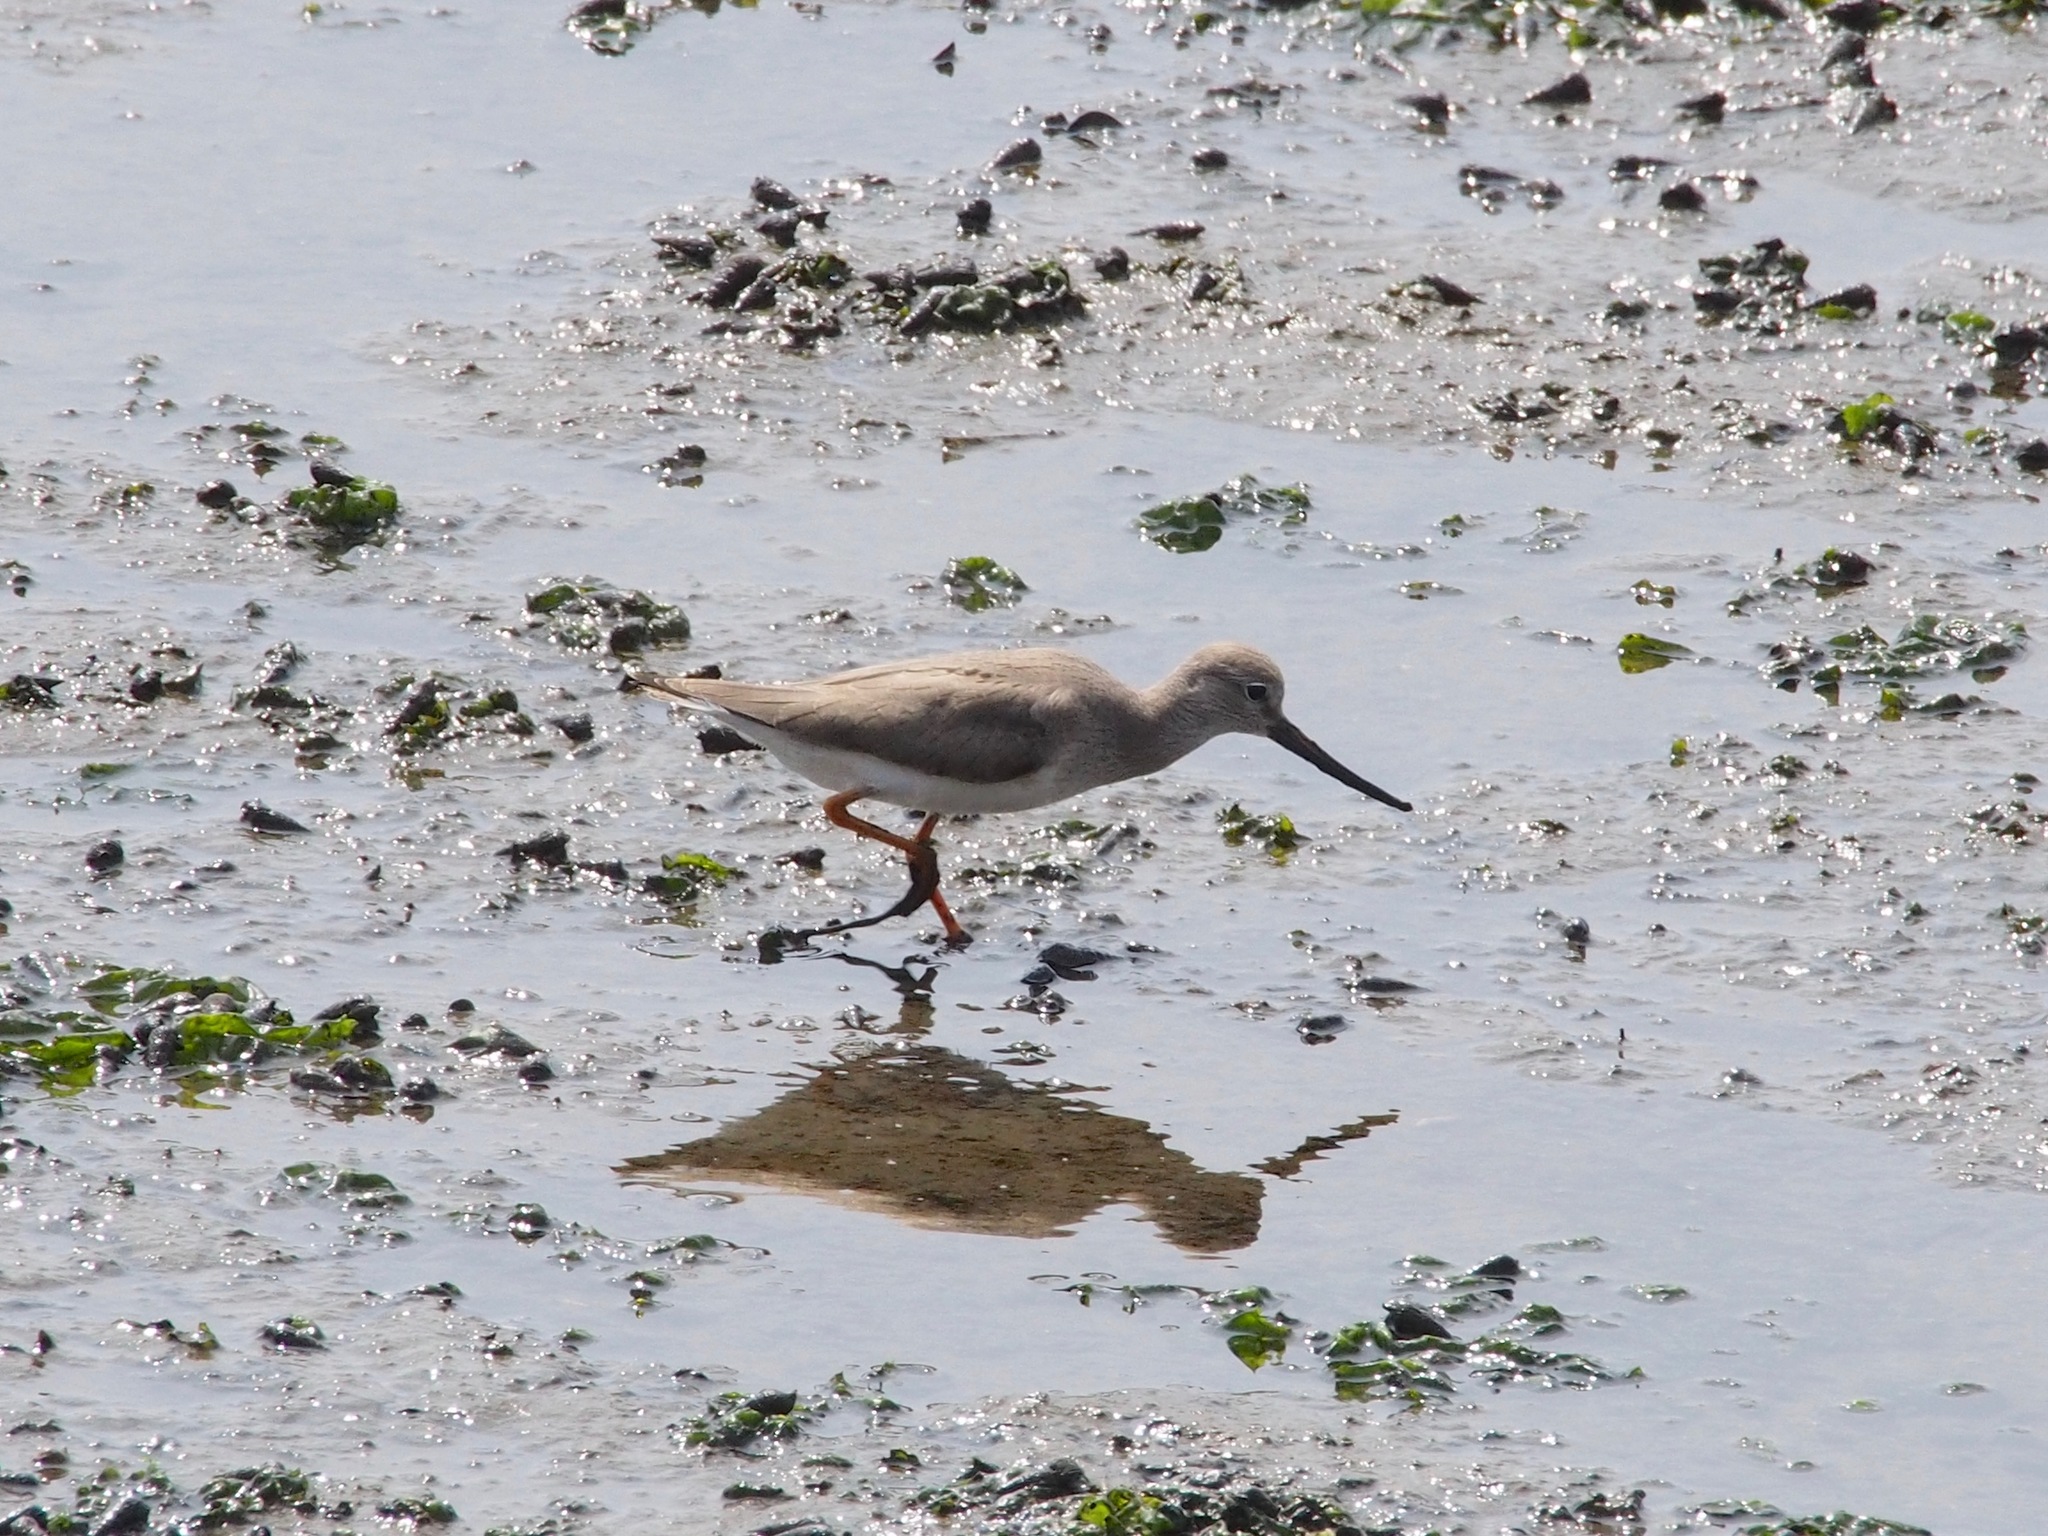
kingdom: Animalia
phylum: Chordata
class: Aves
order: Charadriiformes
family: Scolopacidae
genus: Xenus
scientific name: Xenus cinereus
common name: Terek sandpiper
